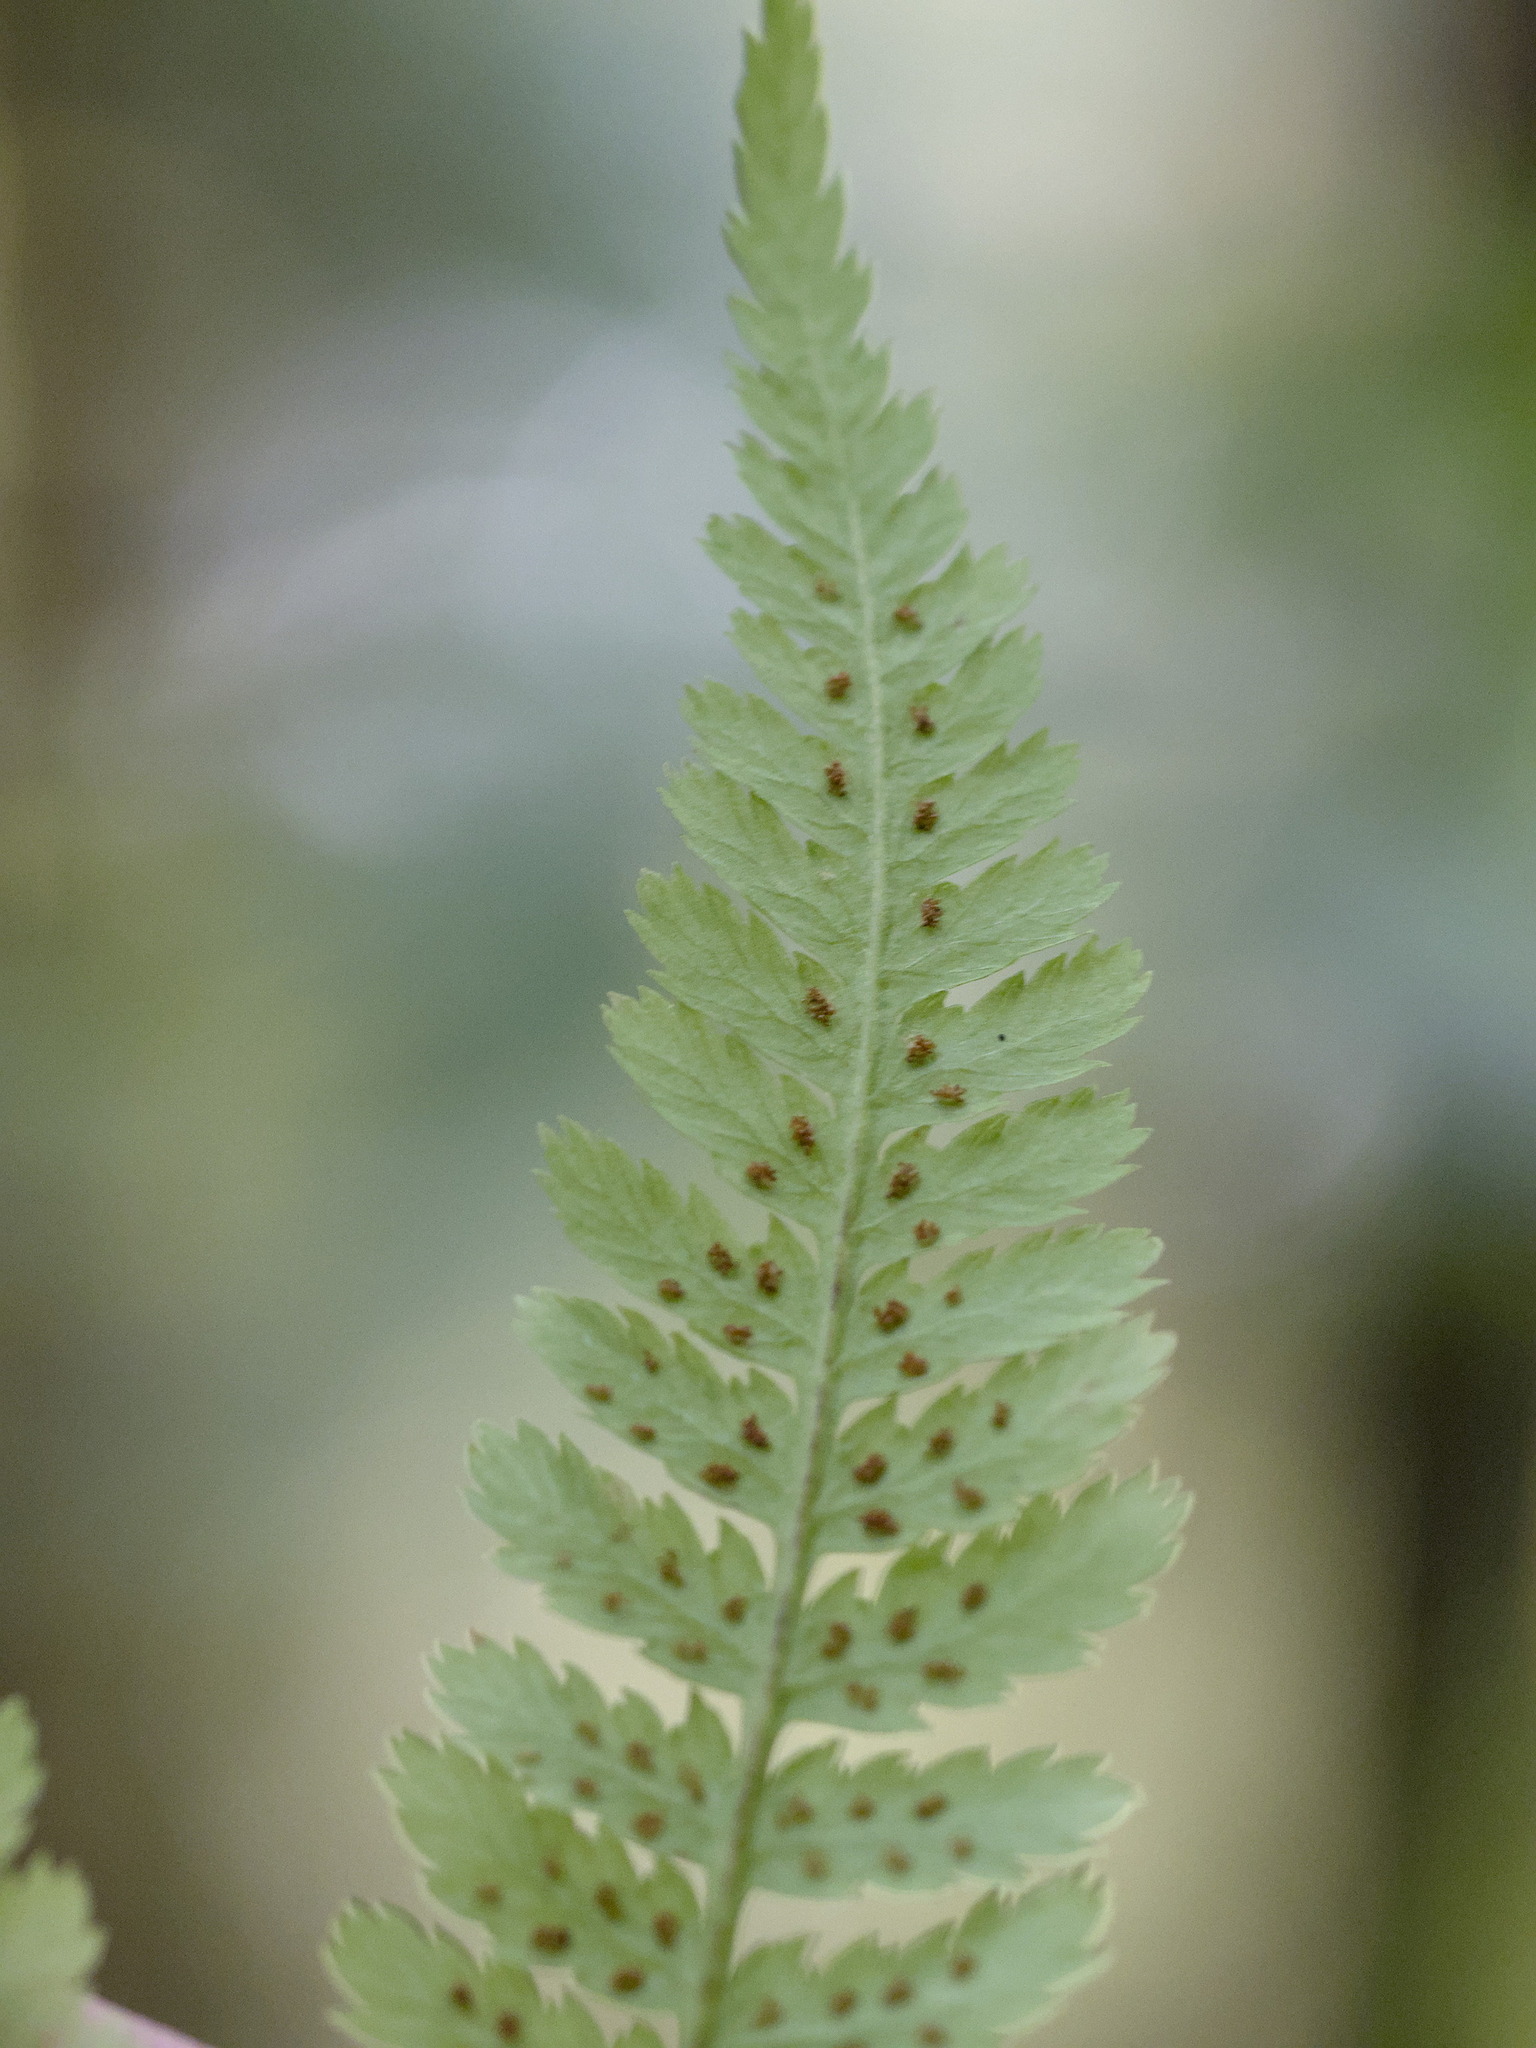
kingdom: Plantae
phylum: Tracheophyta
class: Polypodiopsida
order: Polypodiales
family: Athyriaceae
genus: Athyrium
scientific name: Athyrium cyclosorum
